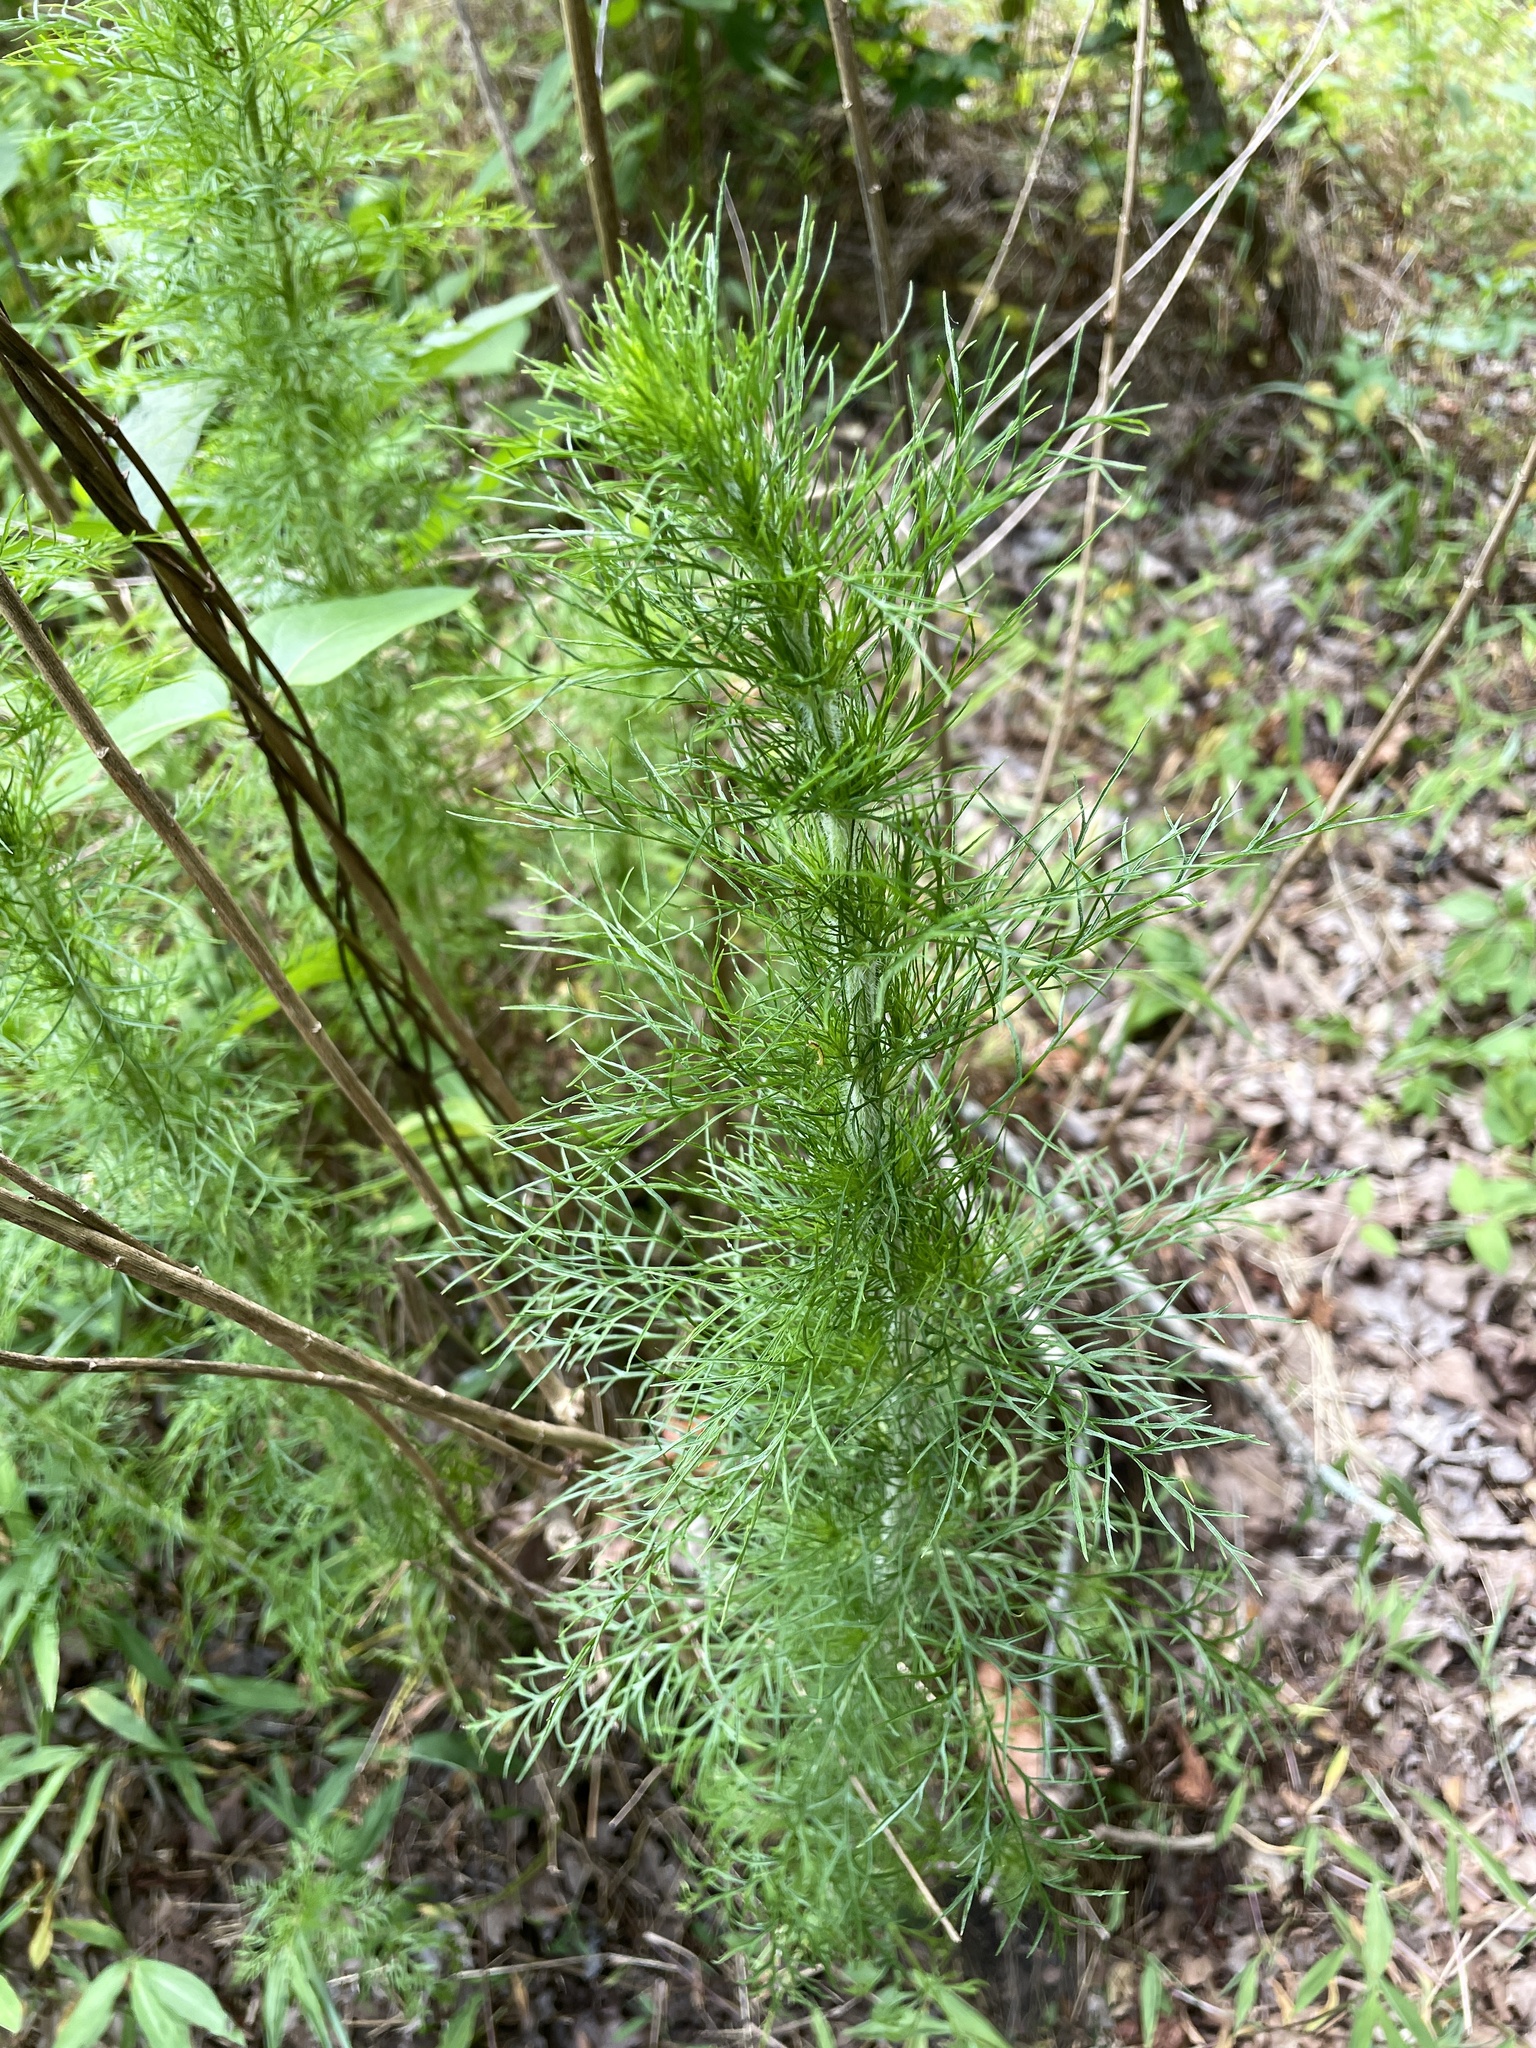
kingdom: Plantae
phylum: Tracheophyta
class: Magnoliopsida
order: Asterales
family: Asteraceae
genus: Eupatorium
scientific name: Eupatorium capillifolium
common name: Dog-fennel
